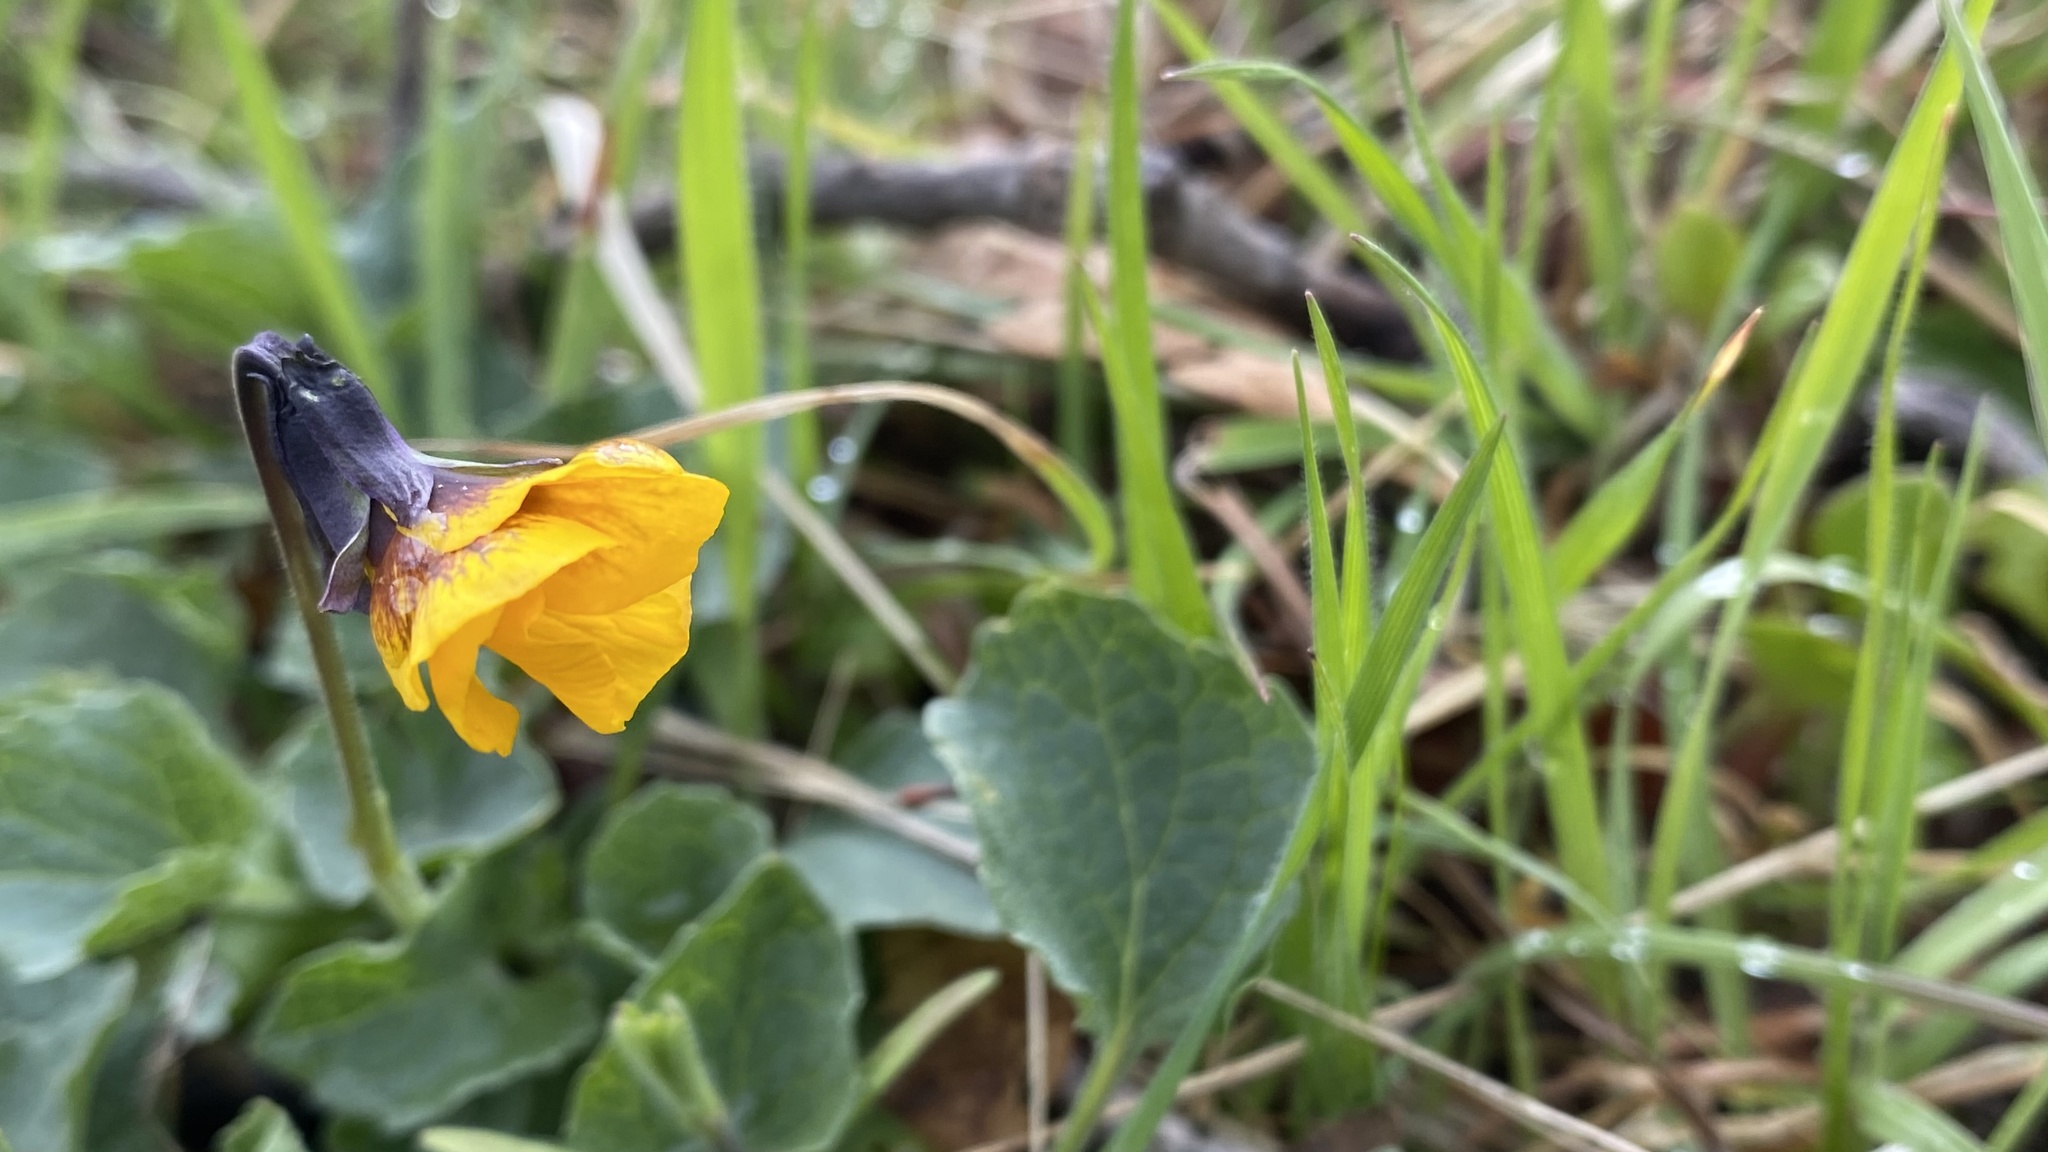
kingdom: Plantae
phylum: Tracheophyta
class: Magnoliopsida
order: Malpighiales
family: Violaceae
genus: Viola
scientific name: Viola quercetorum
